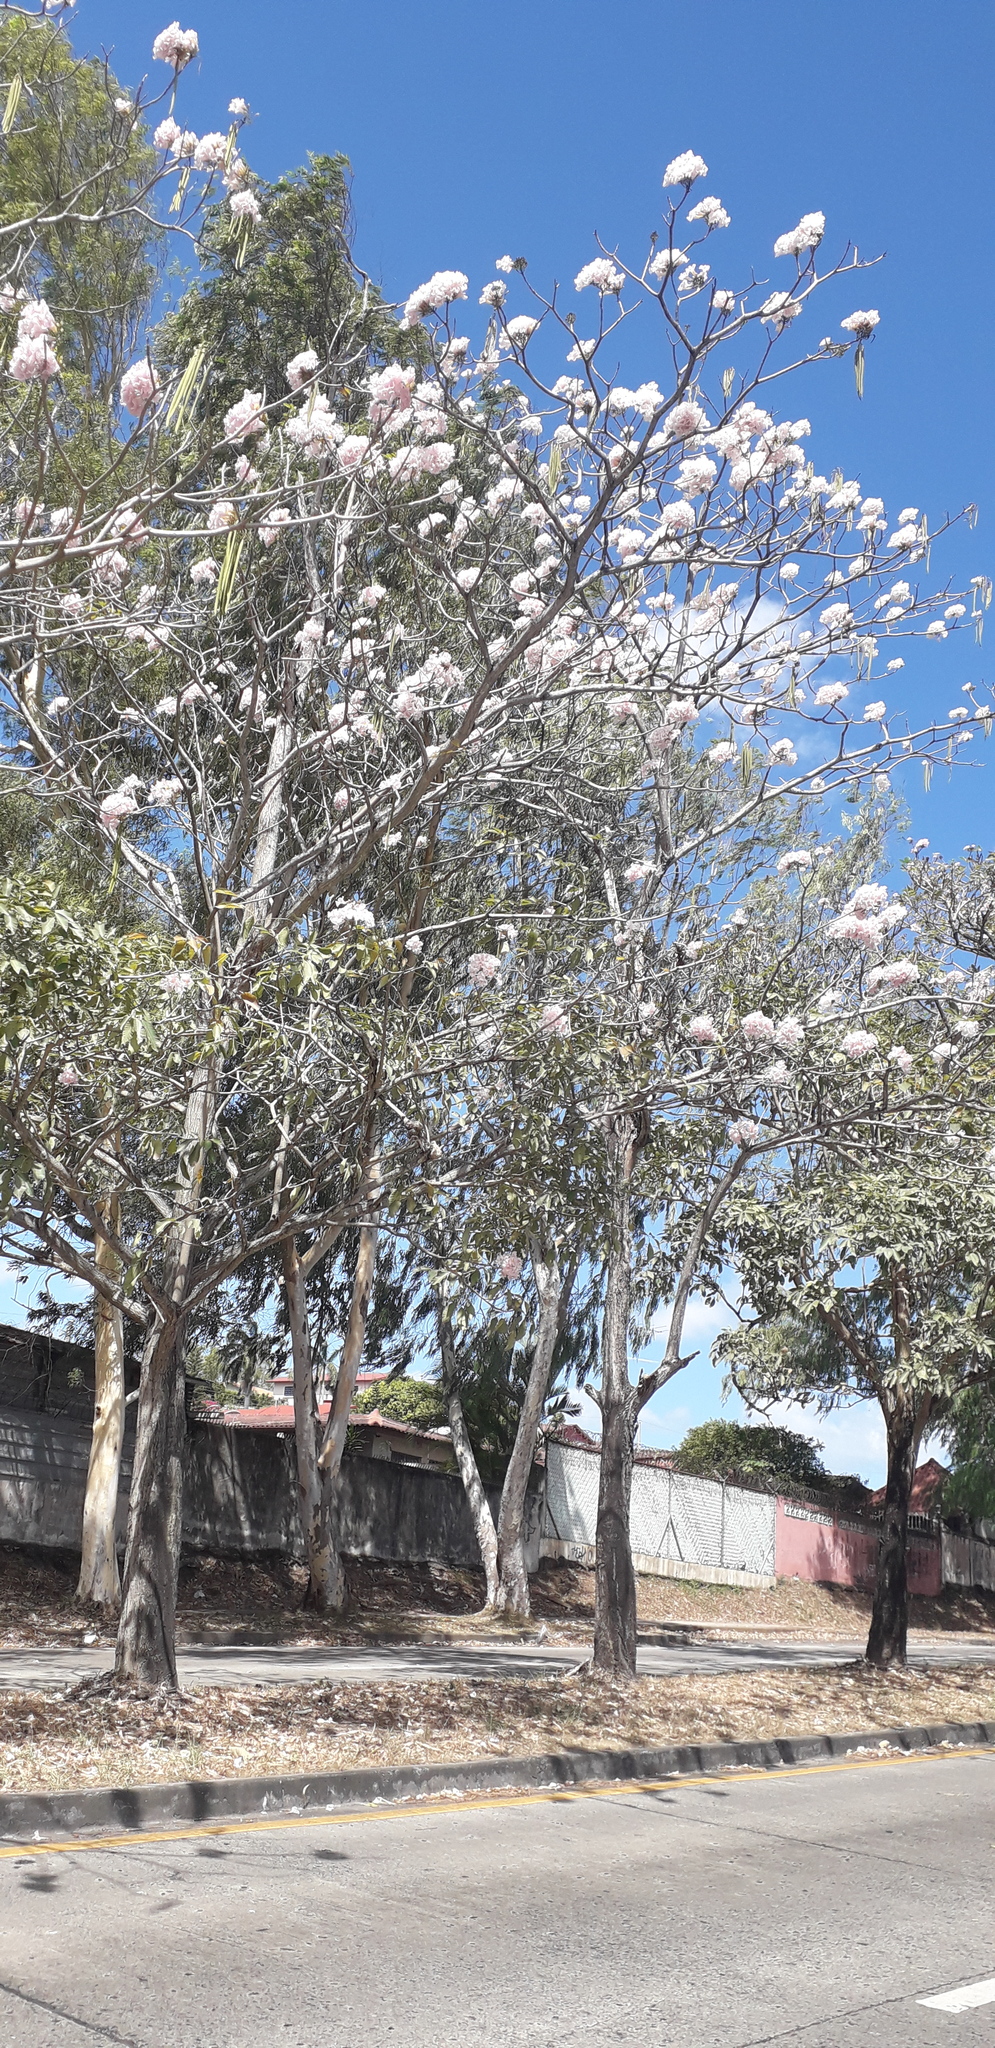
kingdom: Plantae
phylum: Tracheophyta
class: Magnoliopsida
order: Lamiales
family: Bignoniaceae
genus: Tabebuia
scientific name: Tabebuia rosea
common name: Pink poui
